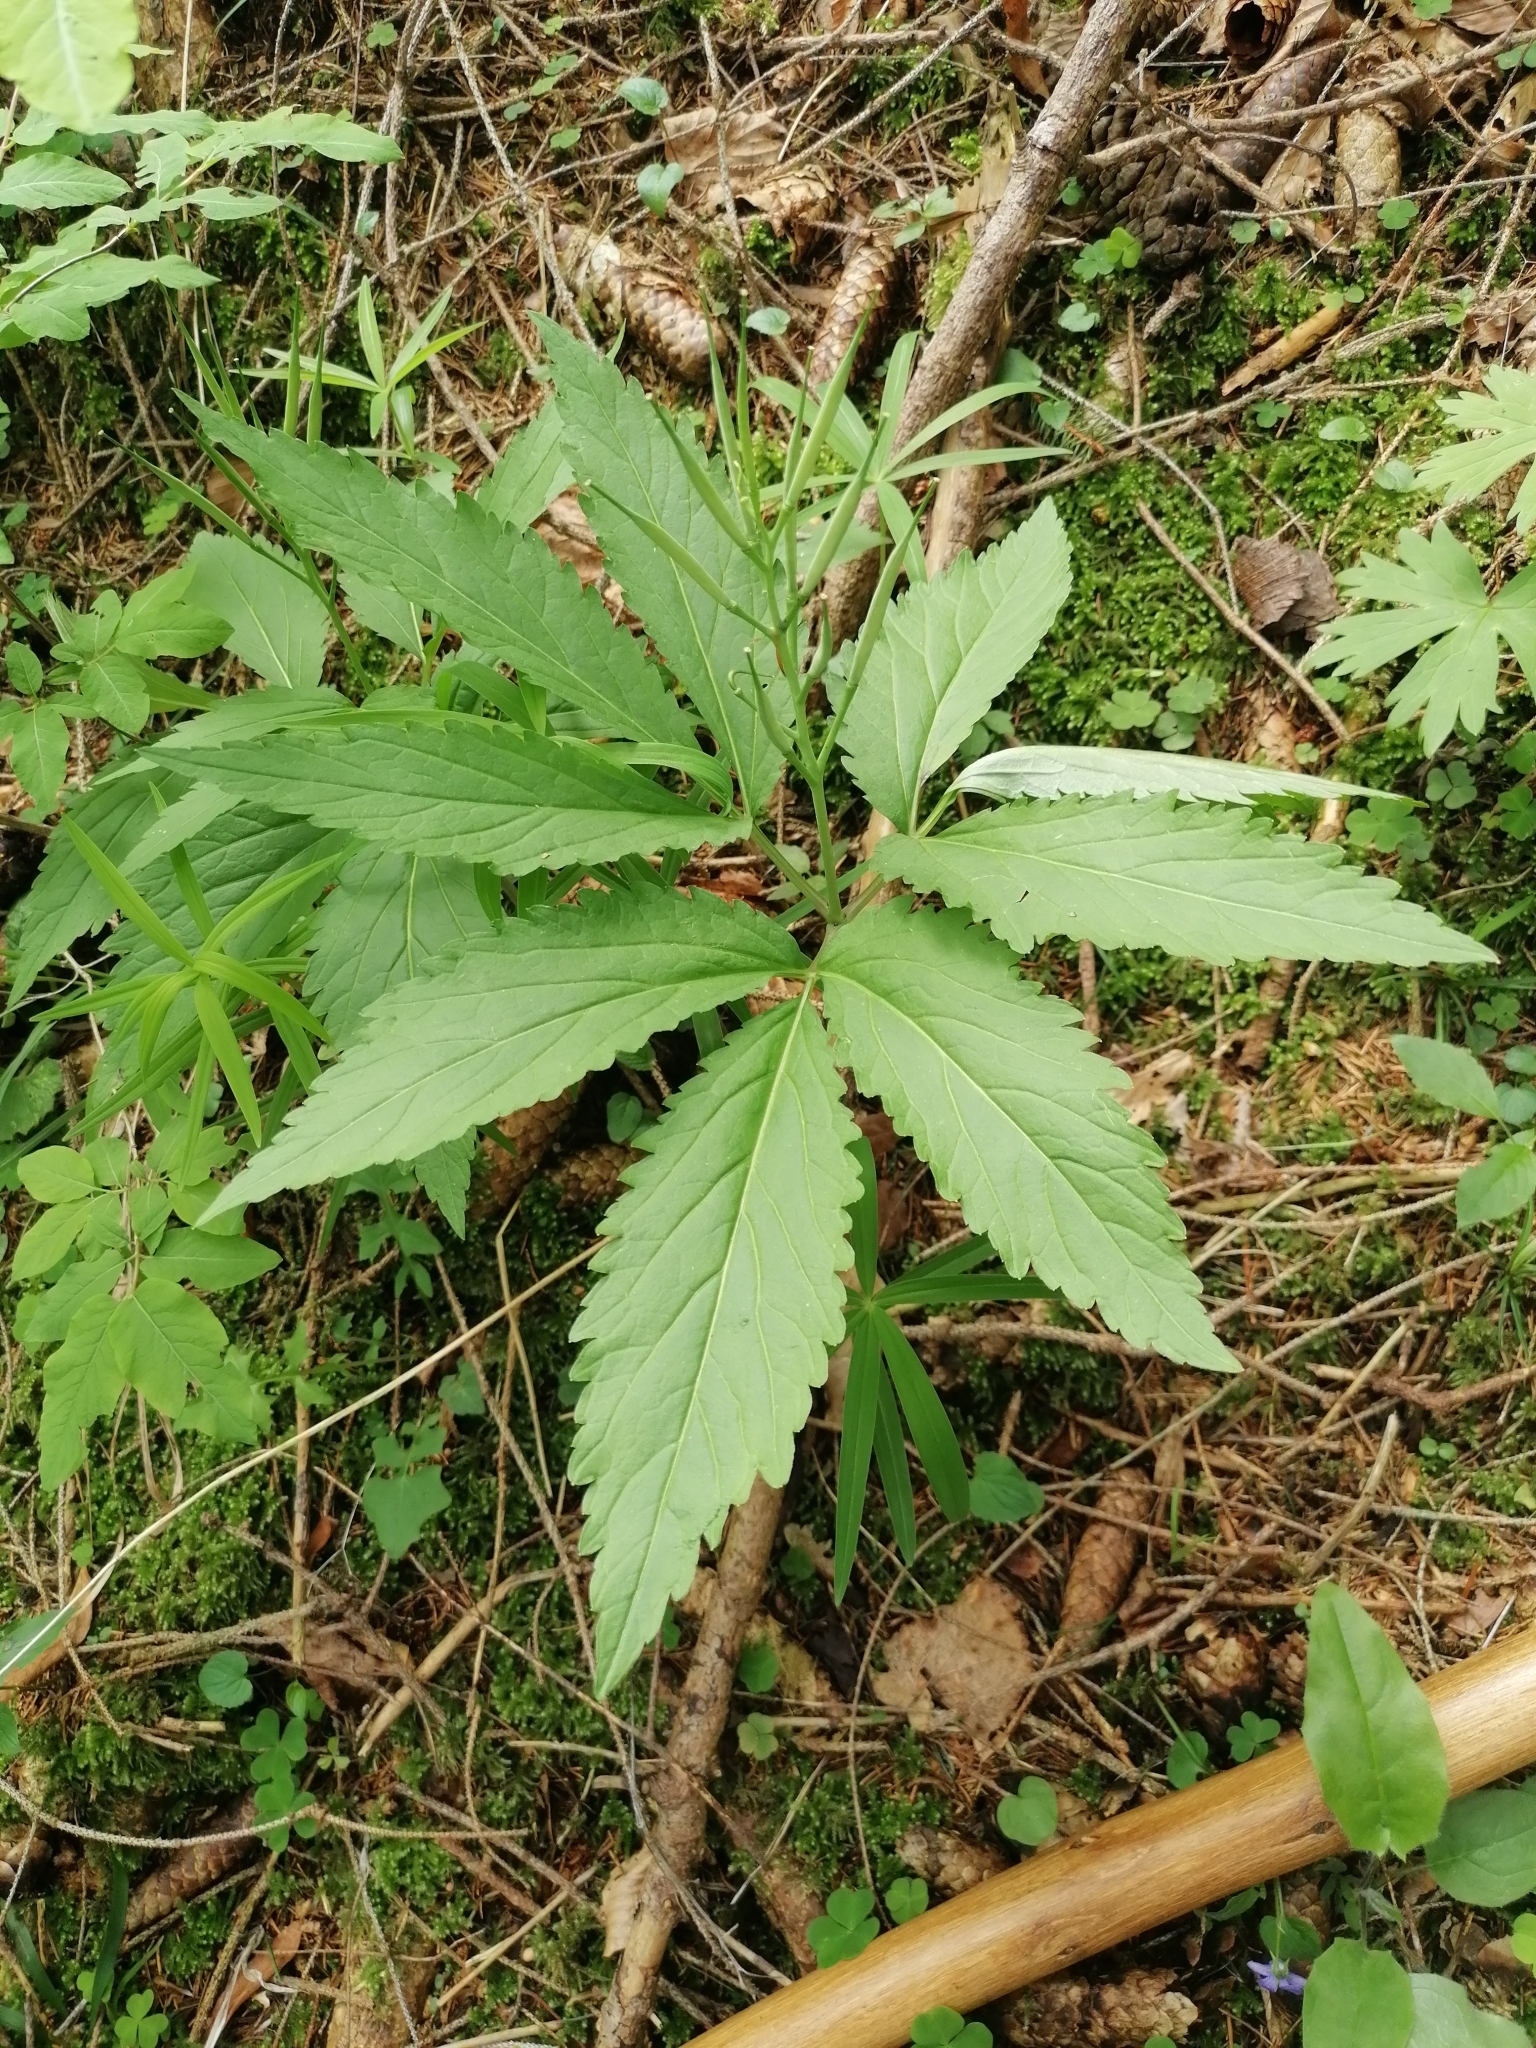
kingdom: Plantae
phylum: Tracheophyta
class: Magnoliopsida
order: Brassicales
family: Brassicaceae
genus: Cardamine
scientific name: Cardamine enneaphyllos
